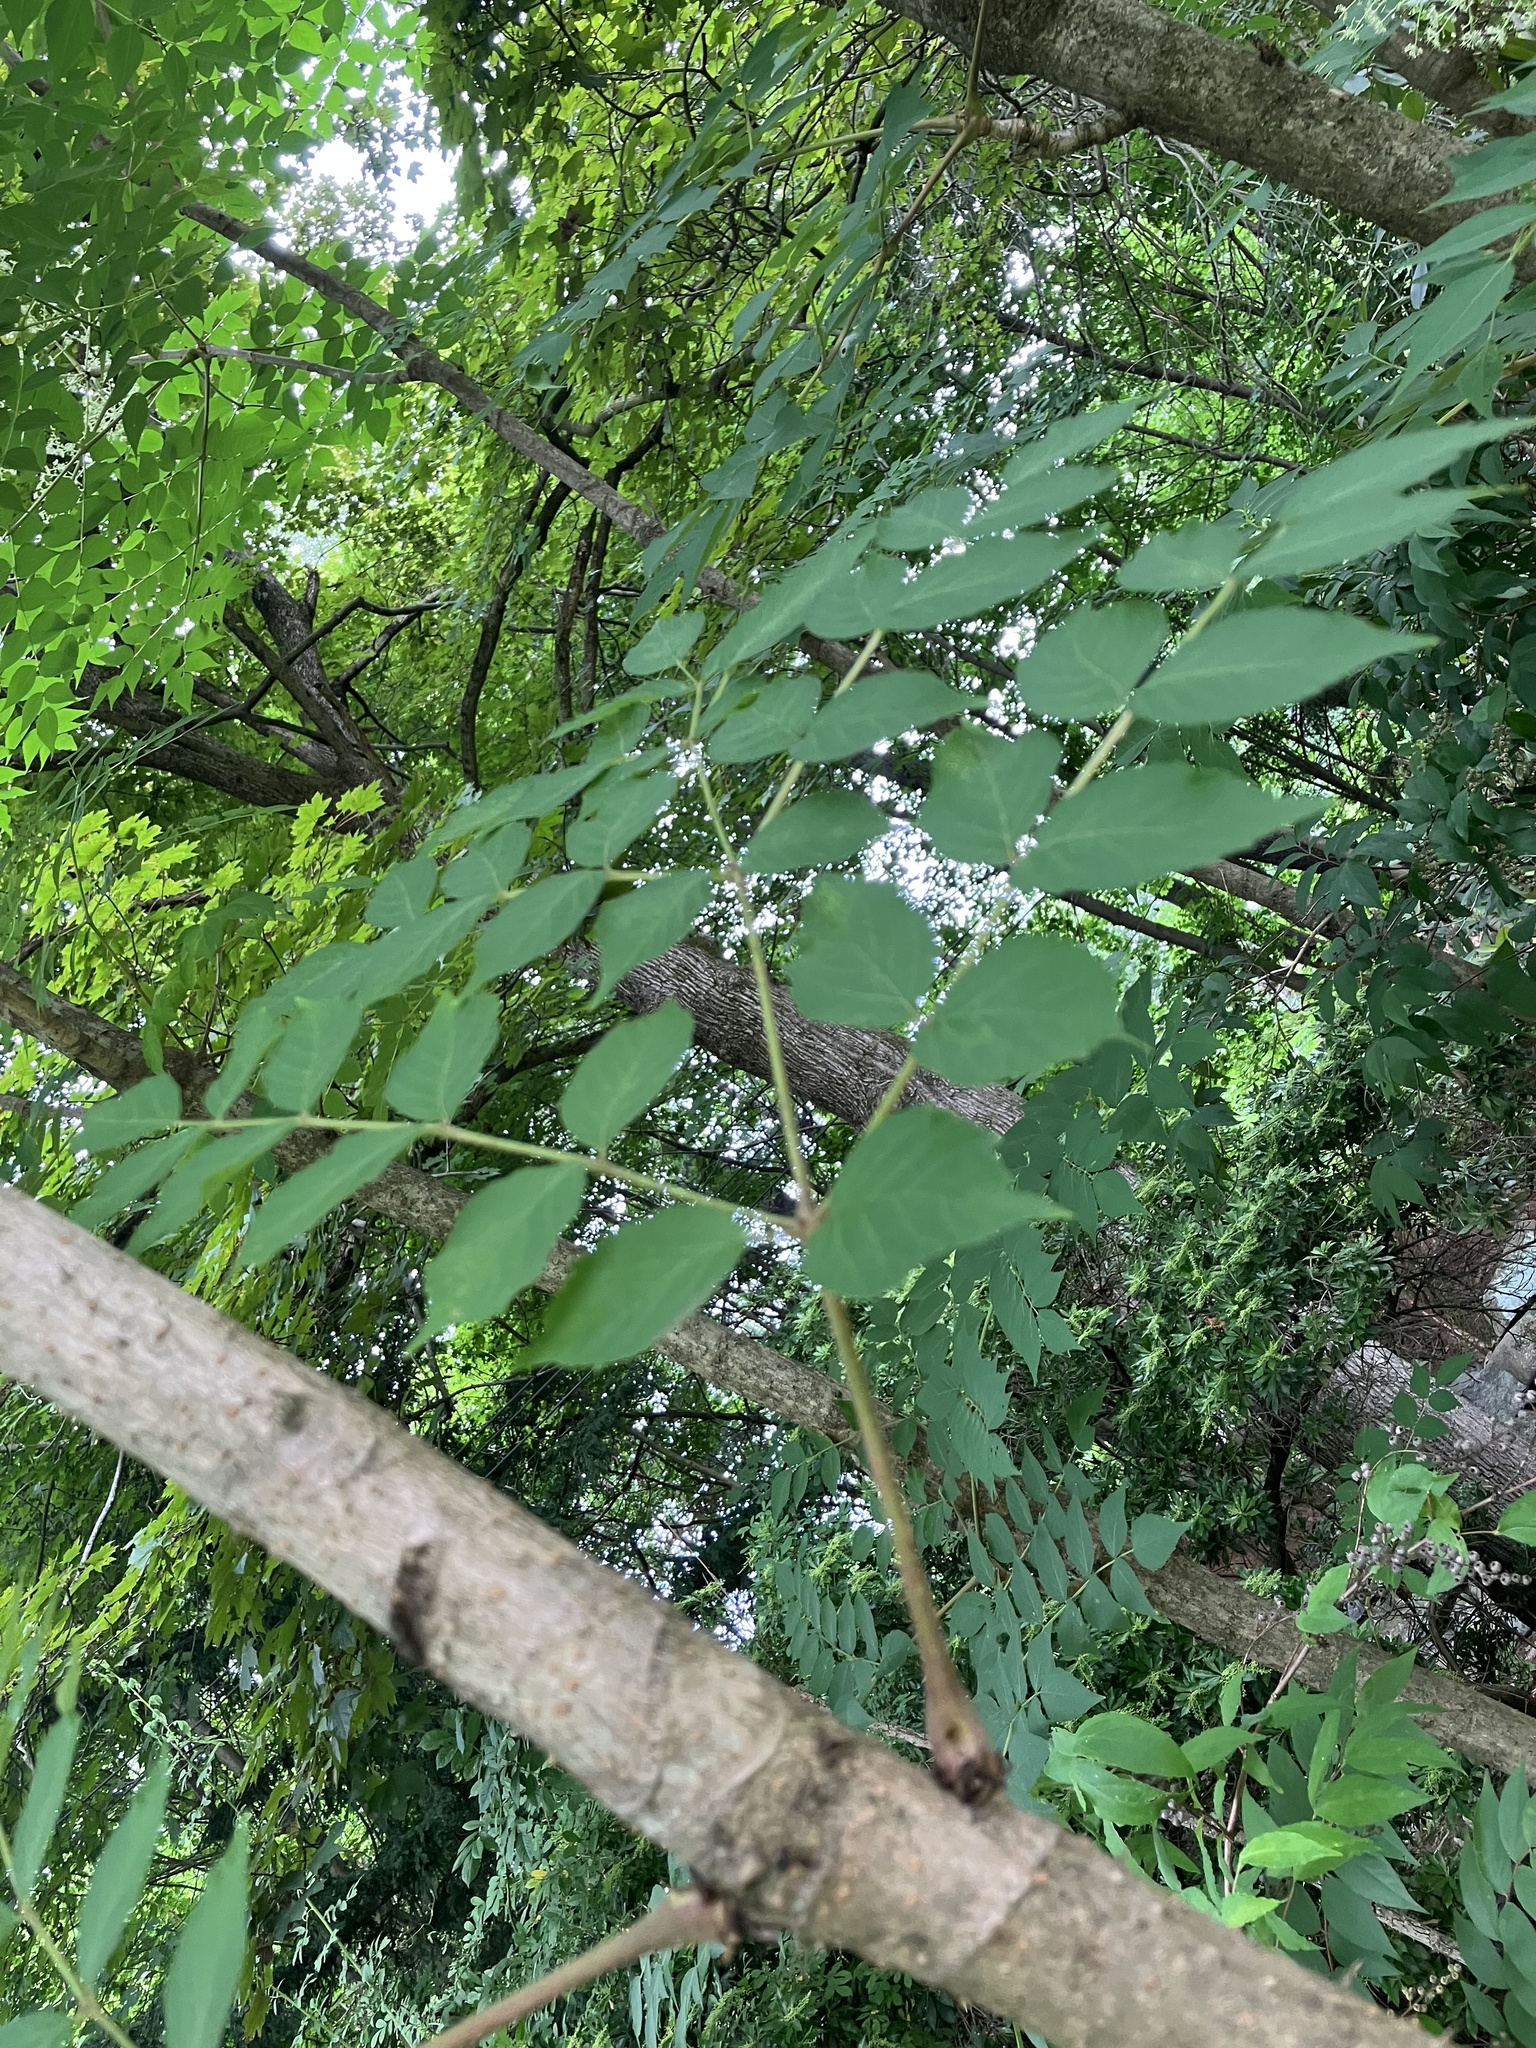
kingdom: Plantae
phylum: Tracheophyta
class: Magnoliopsida
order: Apiales
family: Araliaceae
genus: Aralia
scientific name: Aralia elata
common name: Japanese angelica-tree
